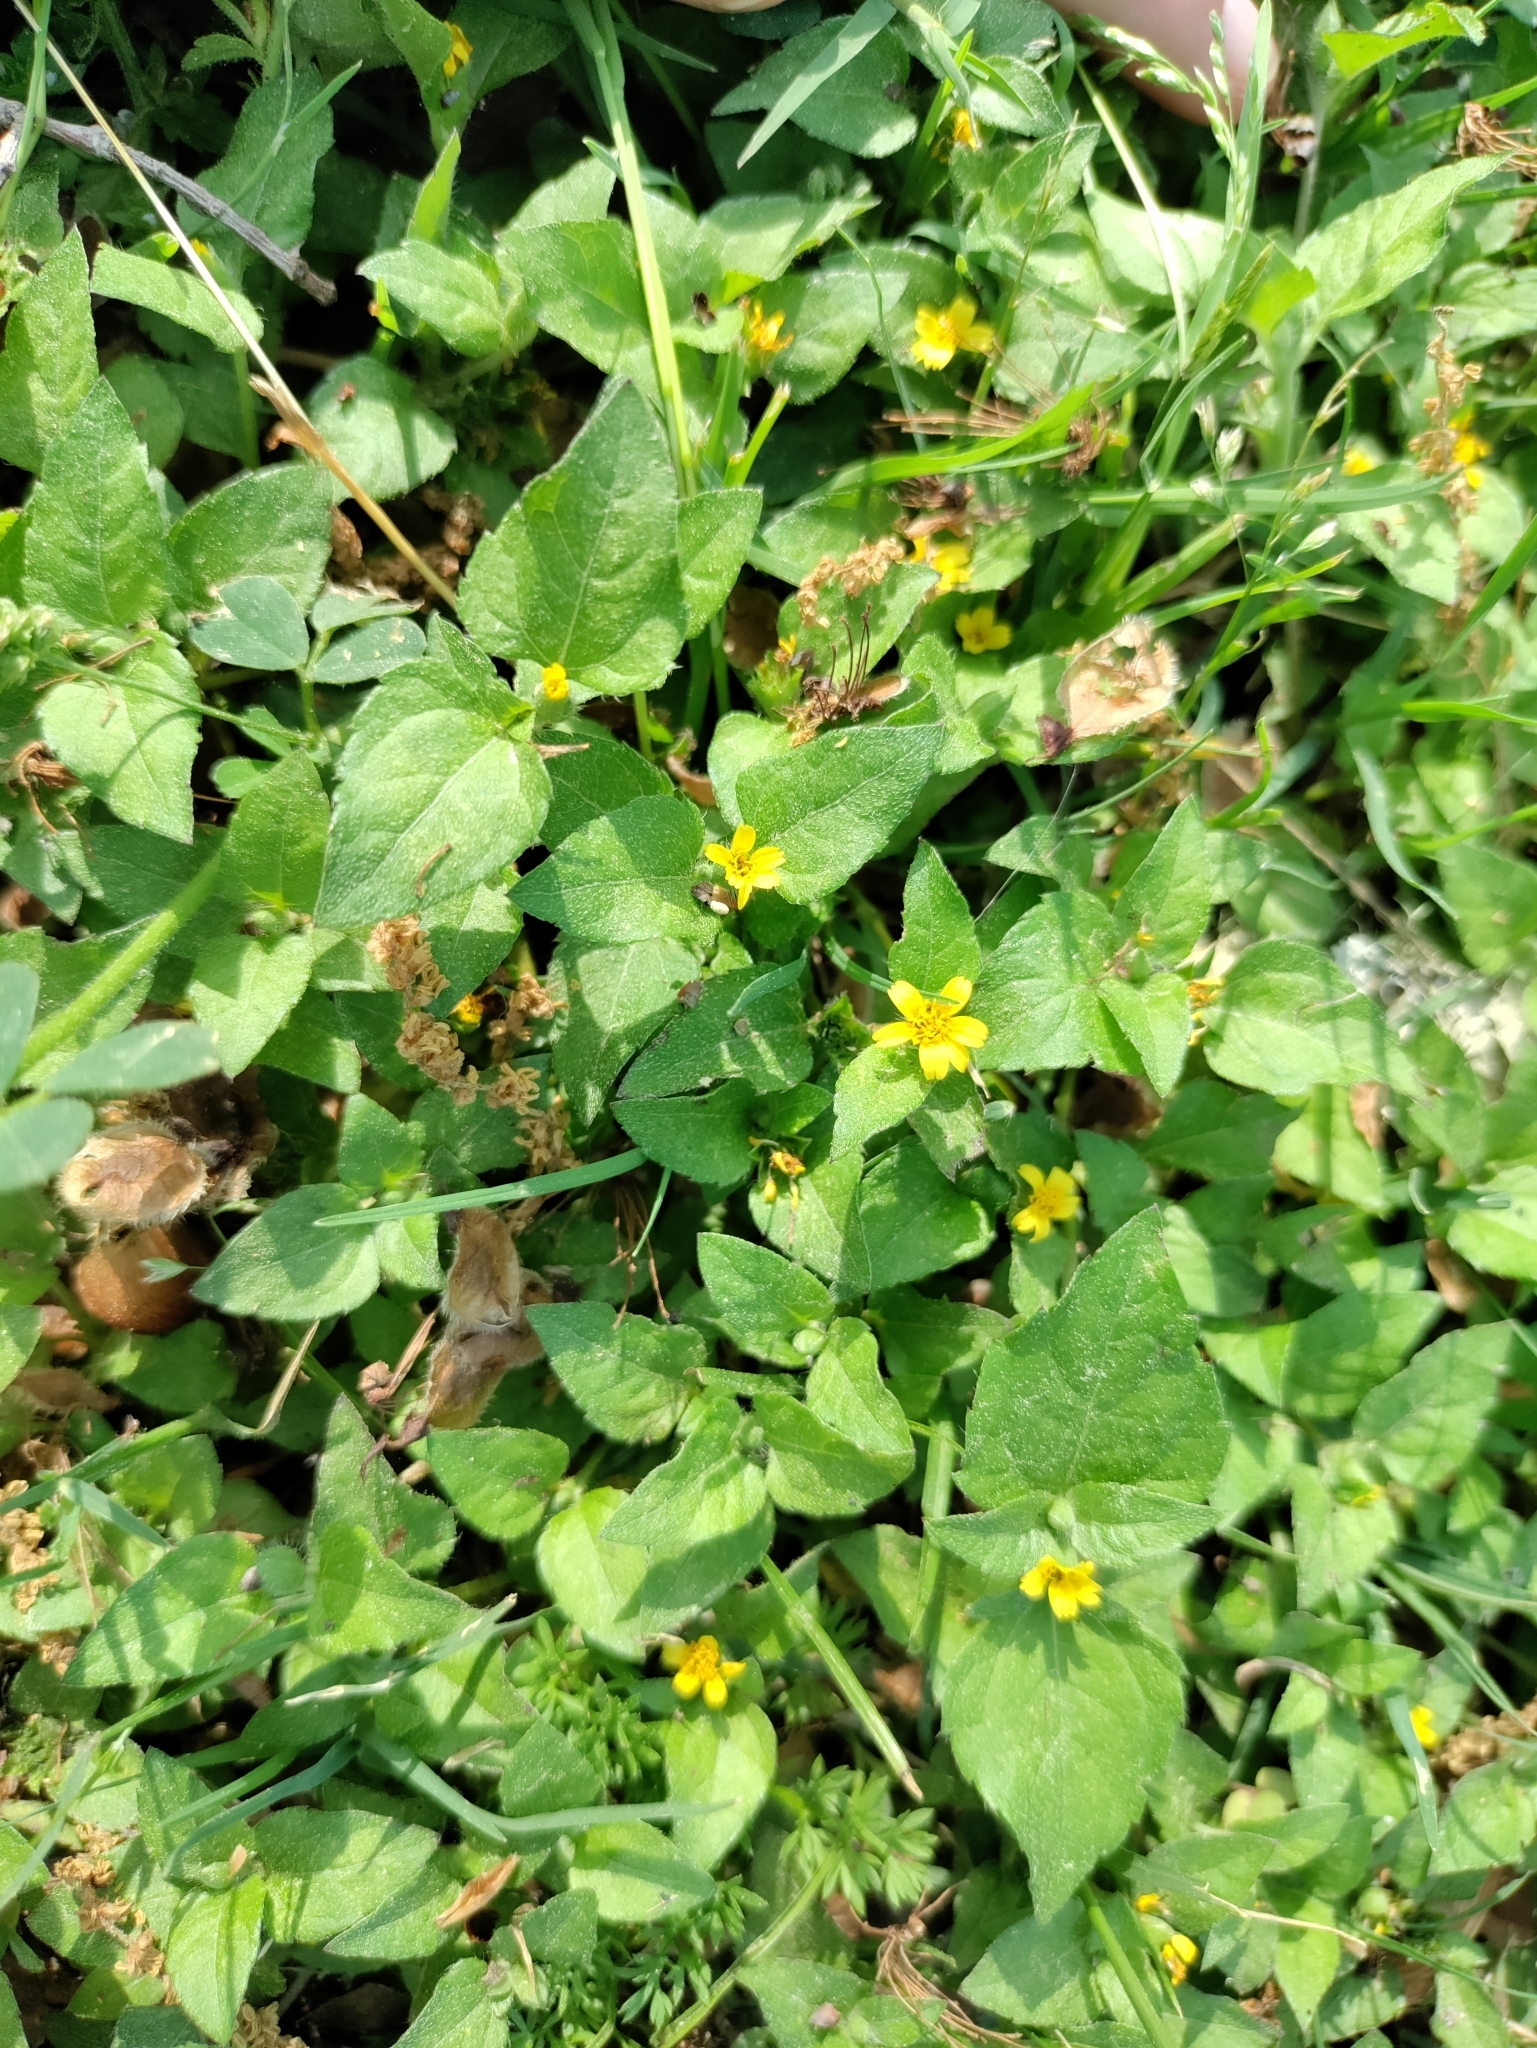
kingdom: Plantae
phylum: Tracheophyta
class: Magnoliopsida
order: Asterales
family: Asteraceae
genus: Calyptocarpus
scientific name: Calyptocarpus vialis
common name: Straggler daisy
